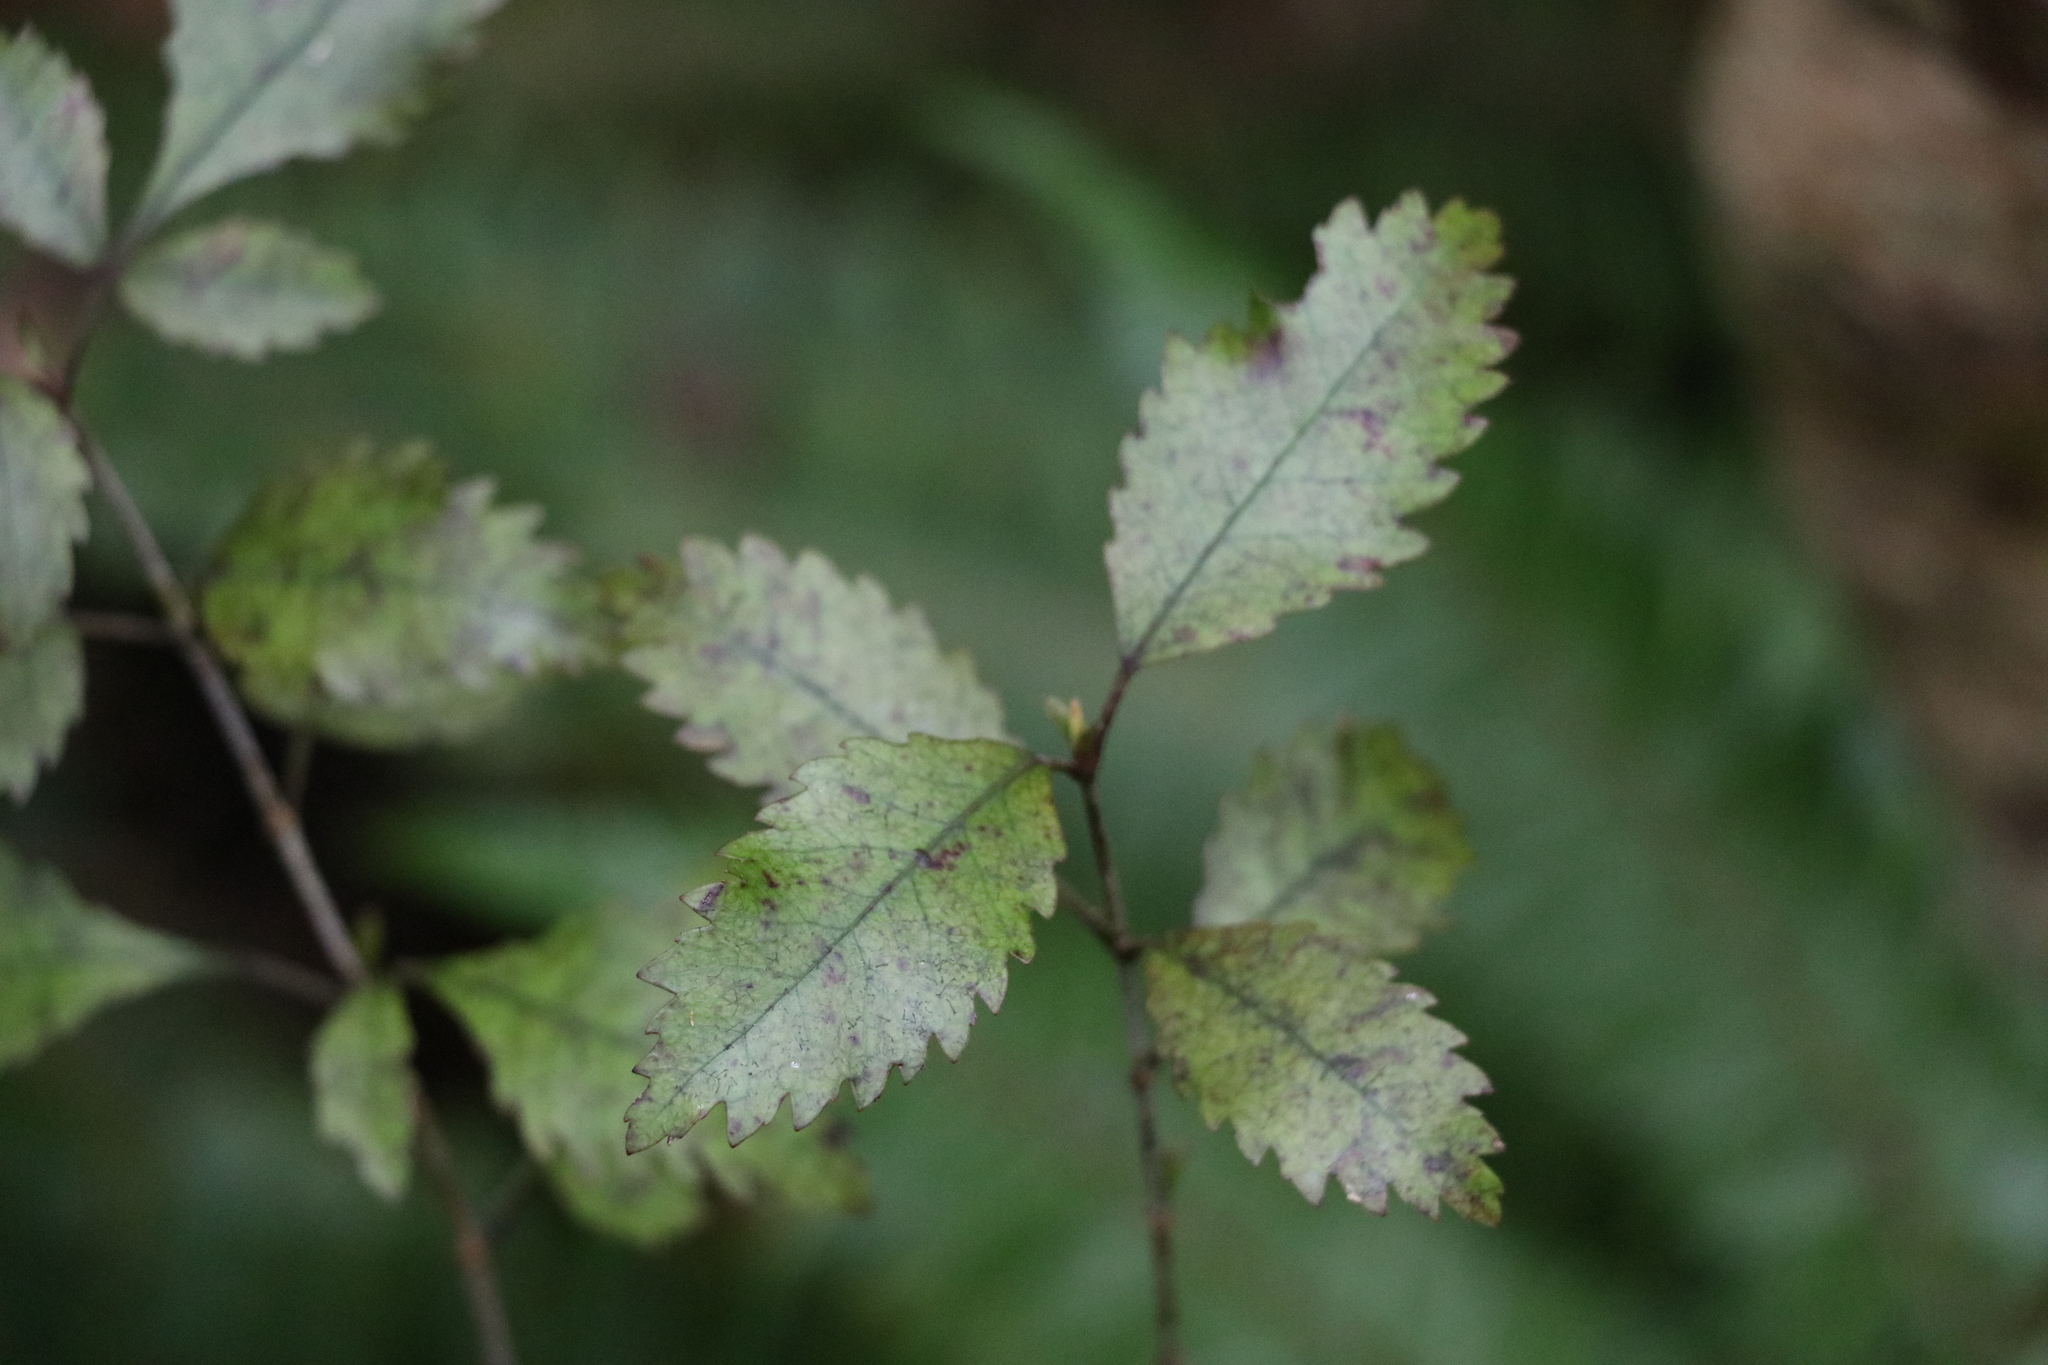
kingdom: Plantae
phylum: Tracheophyta
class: Magnoliopsida
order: Oxalidales
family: Cunoniaceae
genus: Pterophylla
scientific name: Pterophylla racemosa
